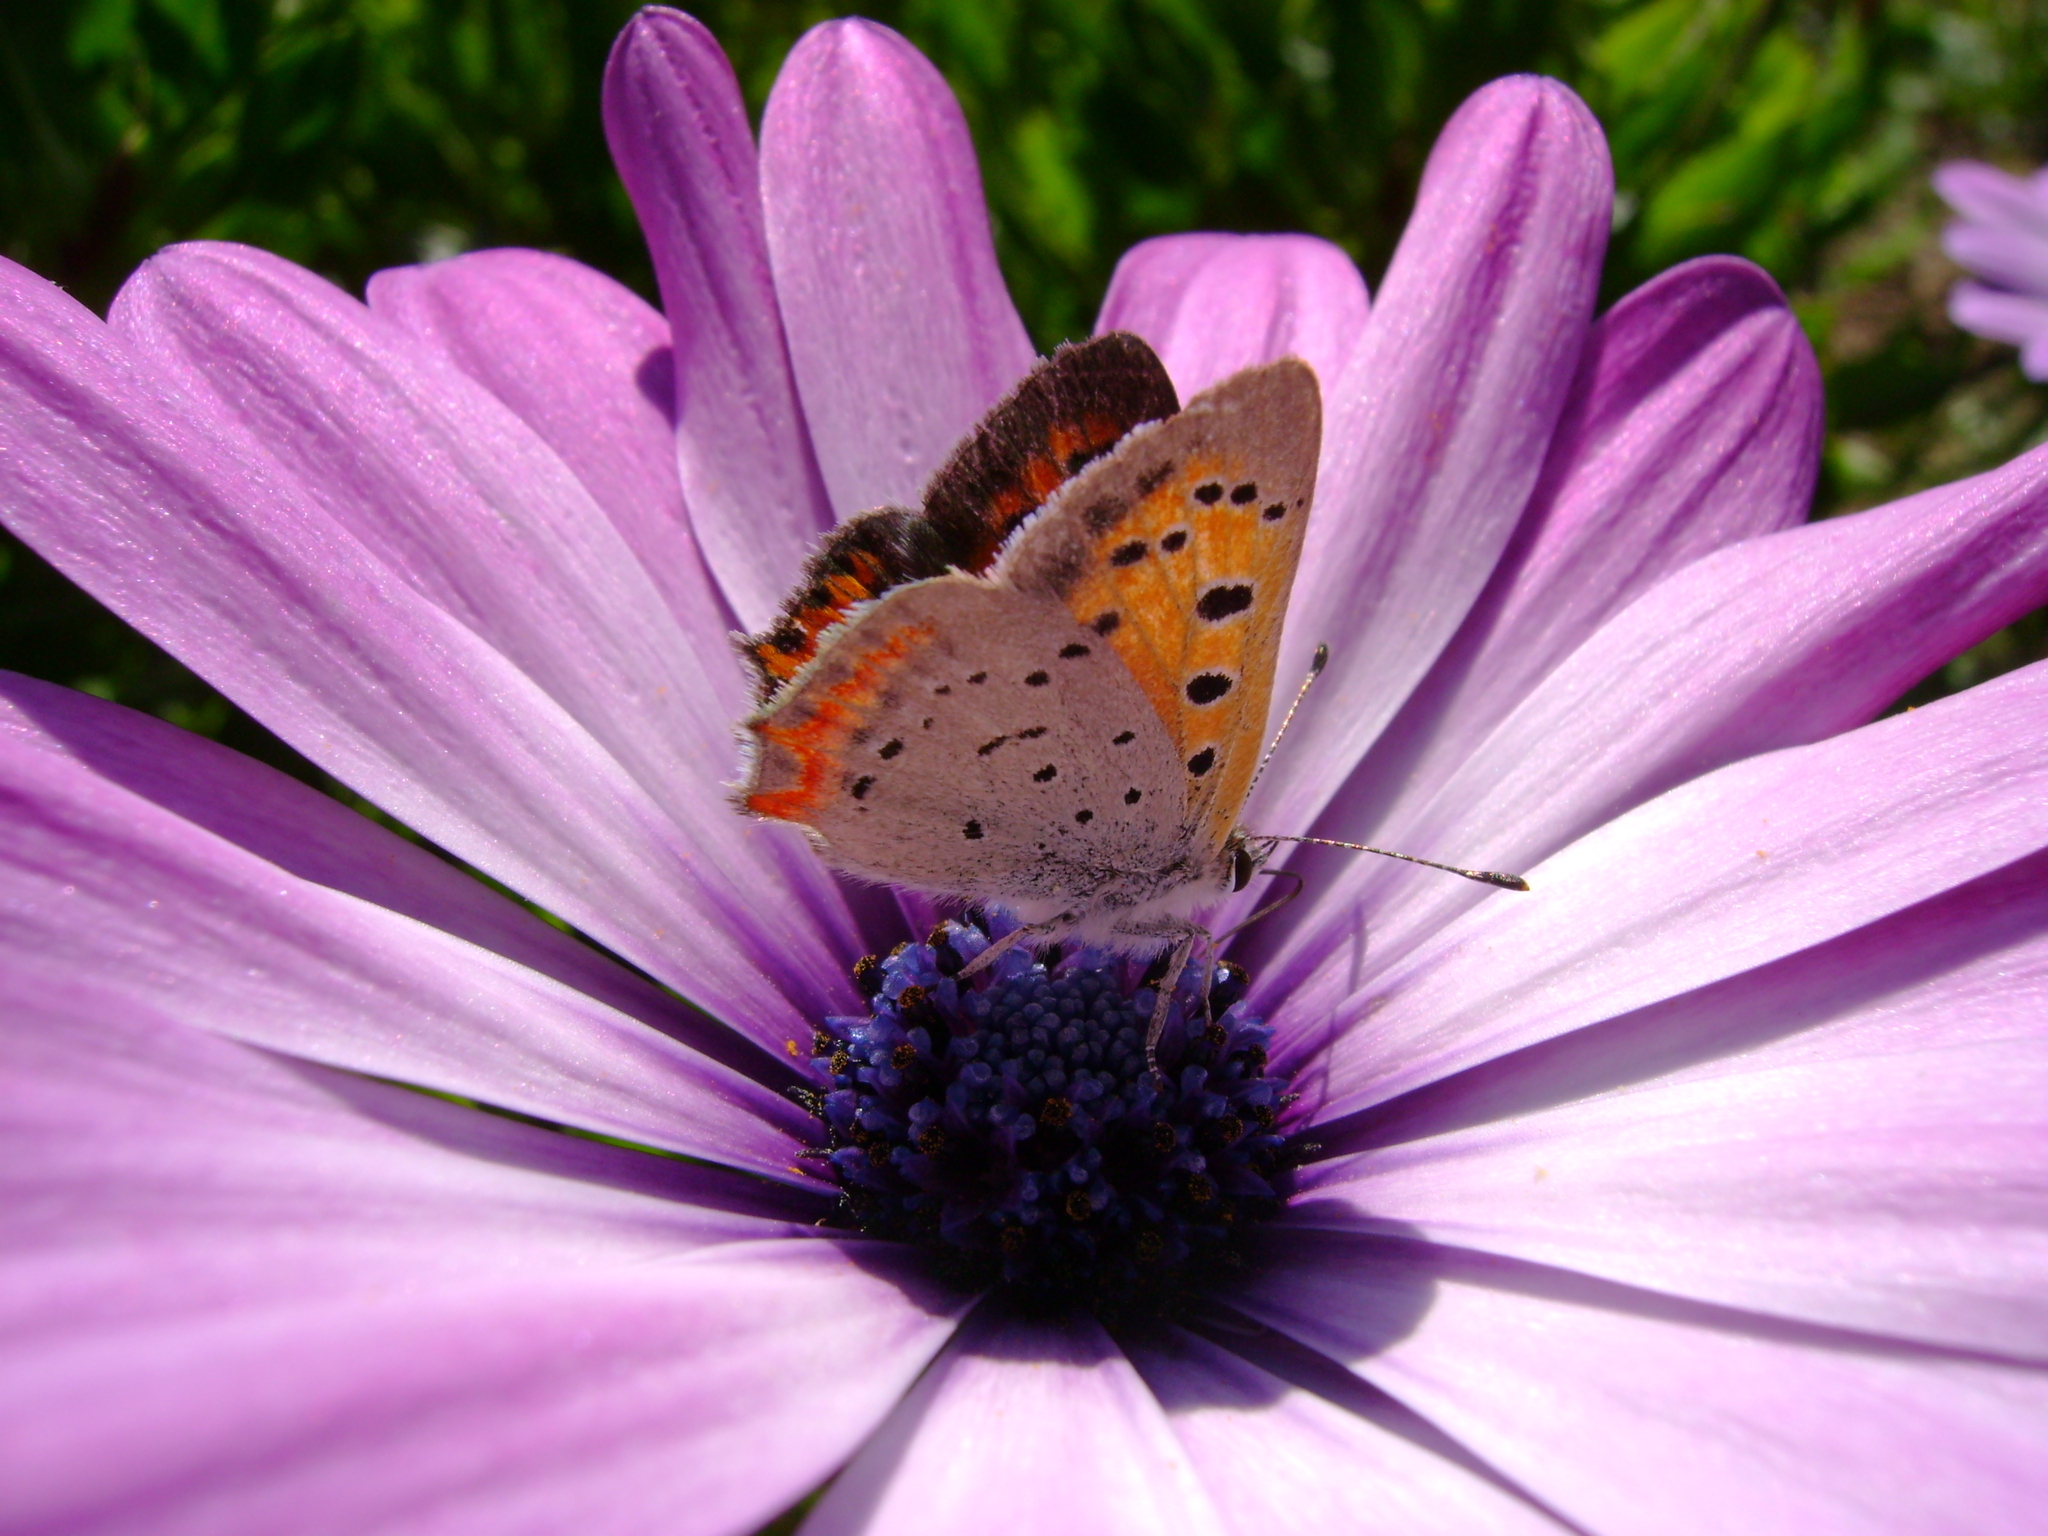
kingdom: Animalia
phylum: Arthropoda
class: Insecta
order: Lepidoptera
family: Lycaenidae
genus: Lycaena
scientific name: Lycaena hypophlaeas
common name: American copper
